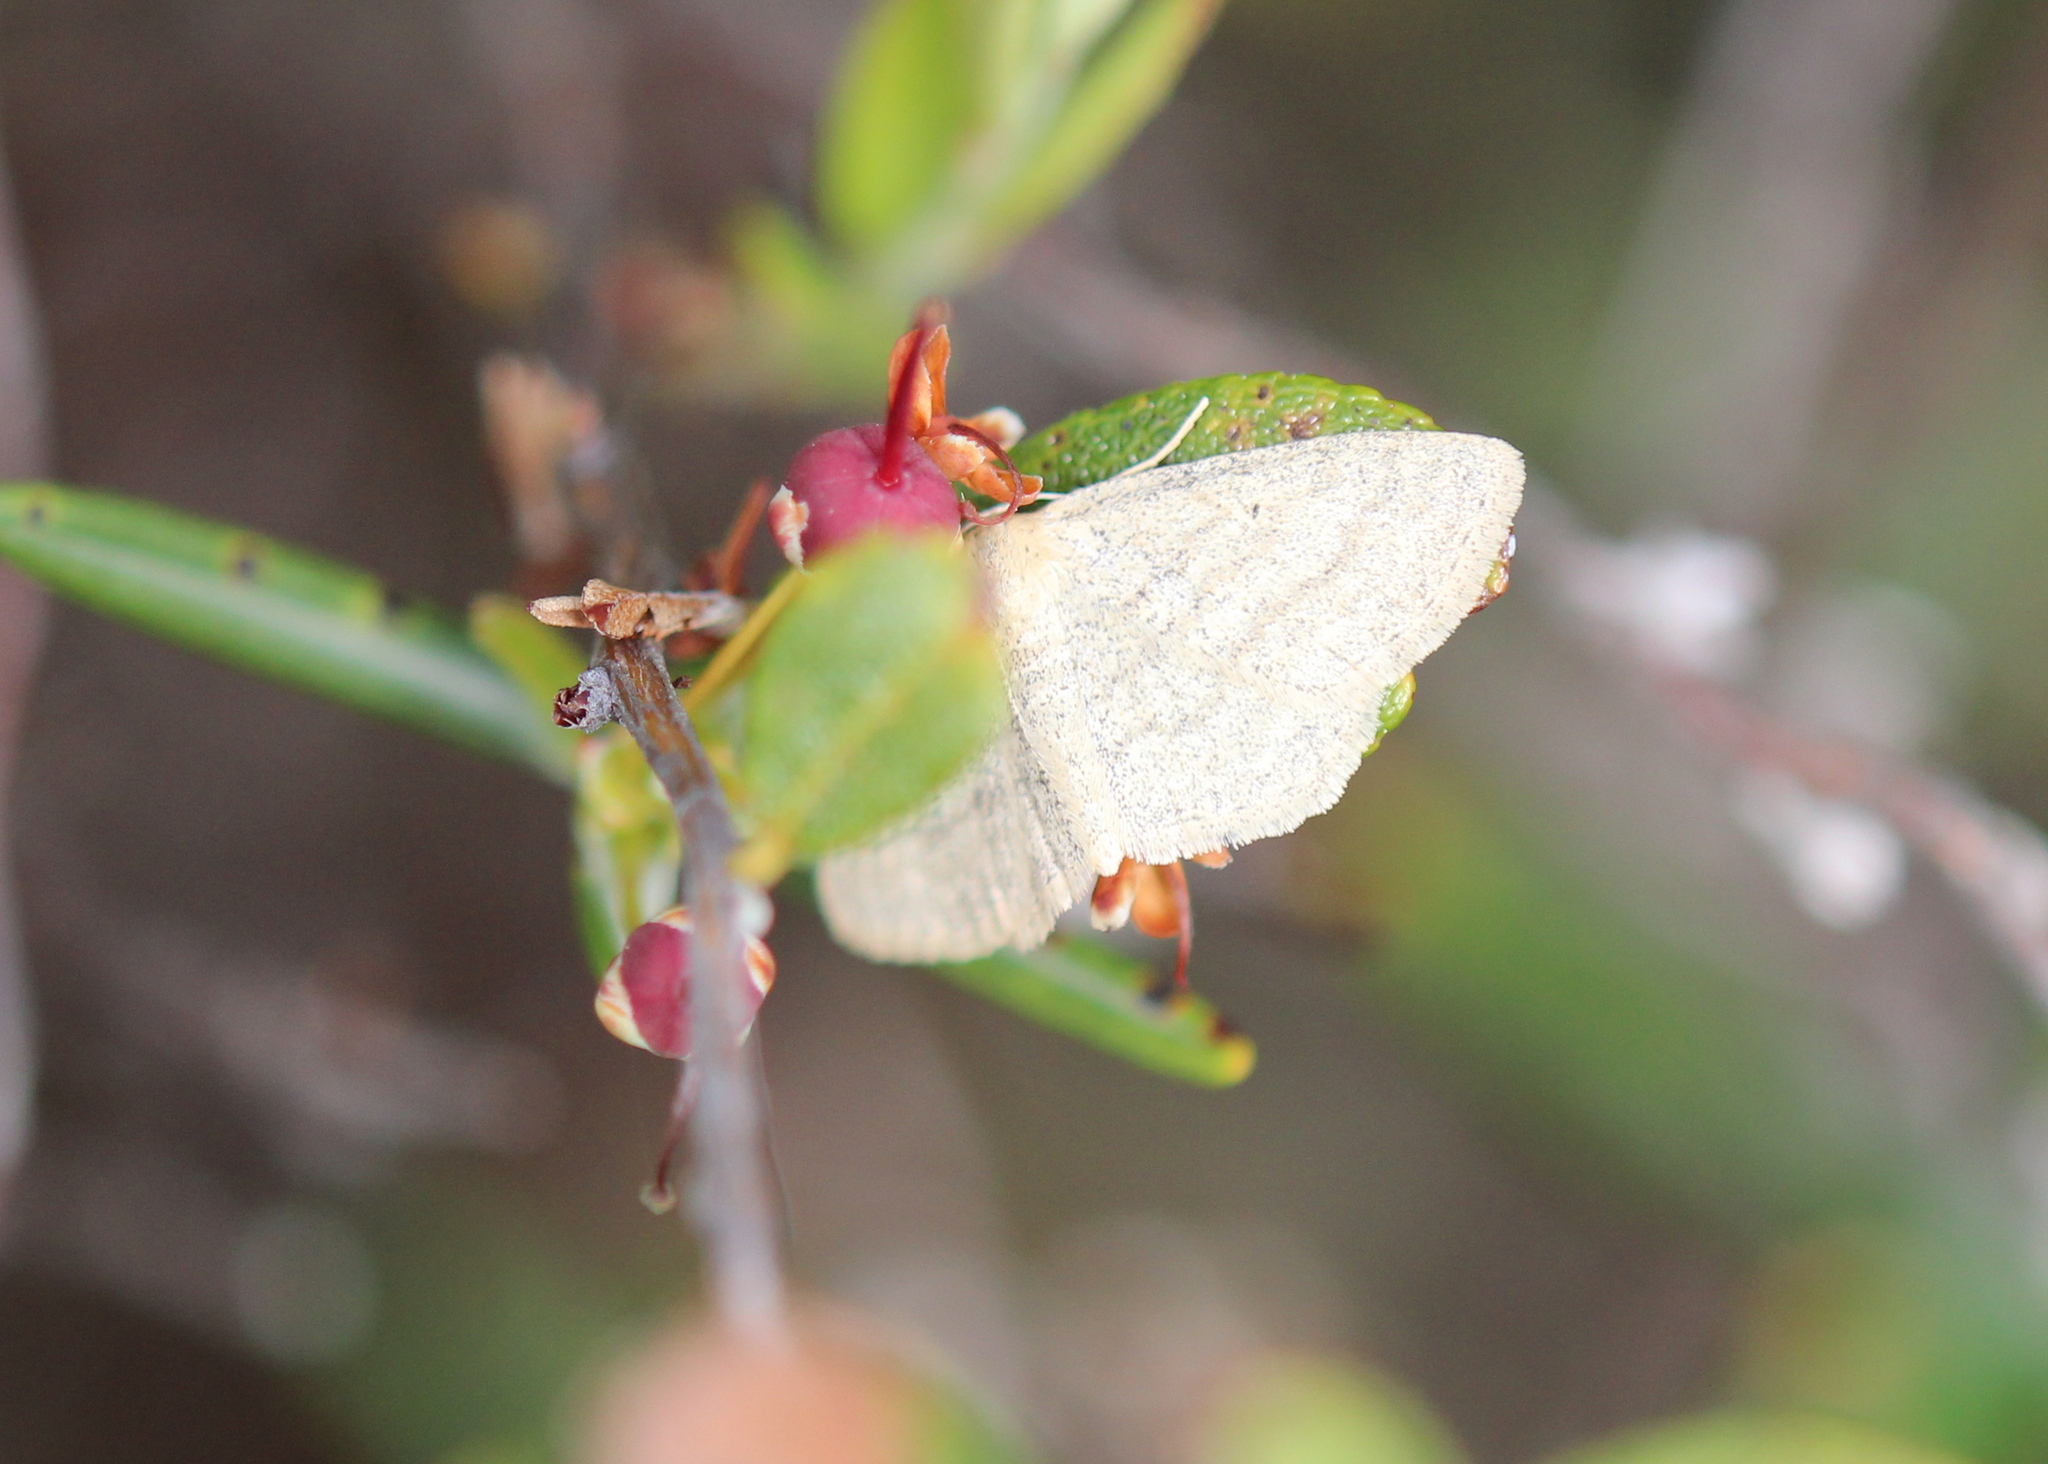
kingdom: Animalia
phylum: Arthropoda
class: Insecta
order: Lepidoptera
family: Geometridae
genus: Scopula
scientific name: Scopula inductata
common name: Soft-lined wave
